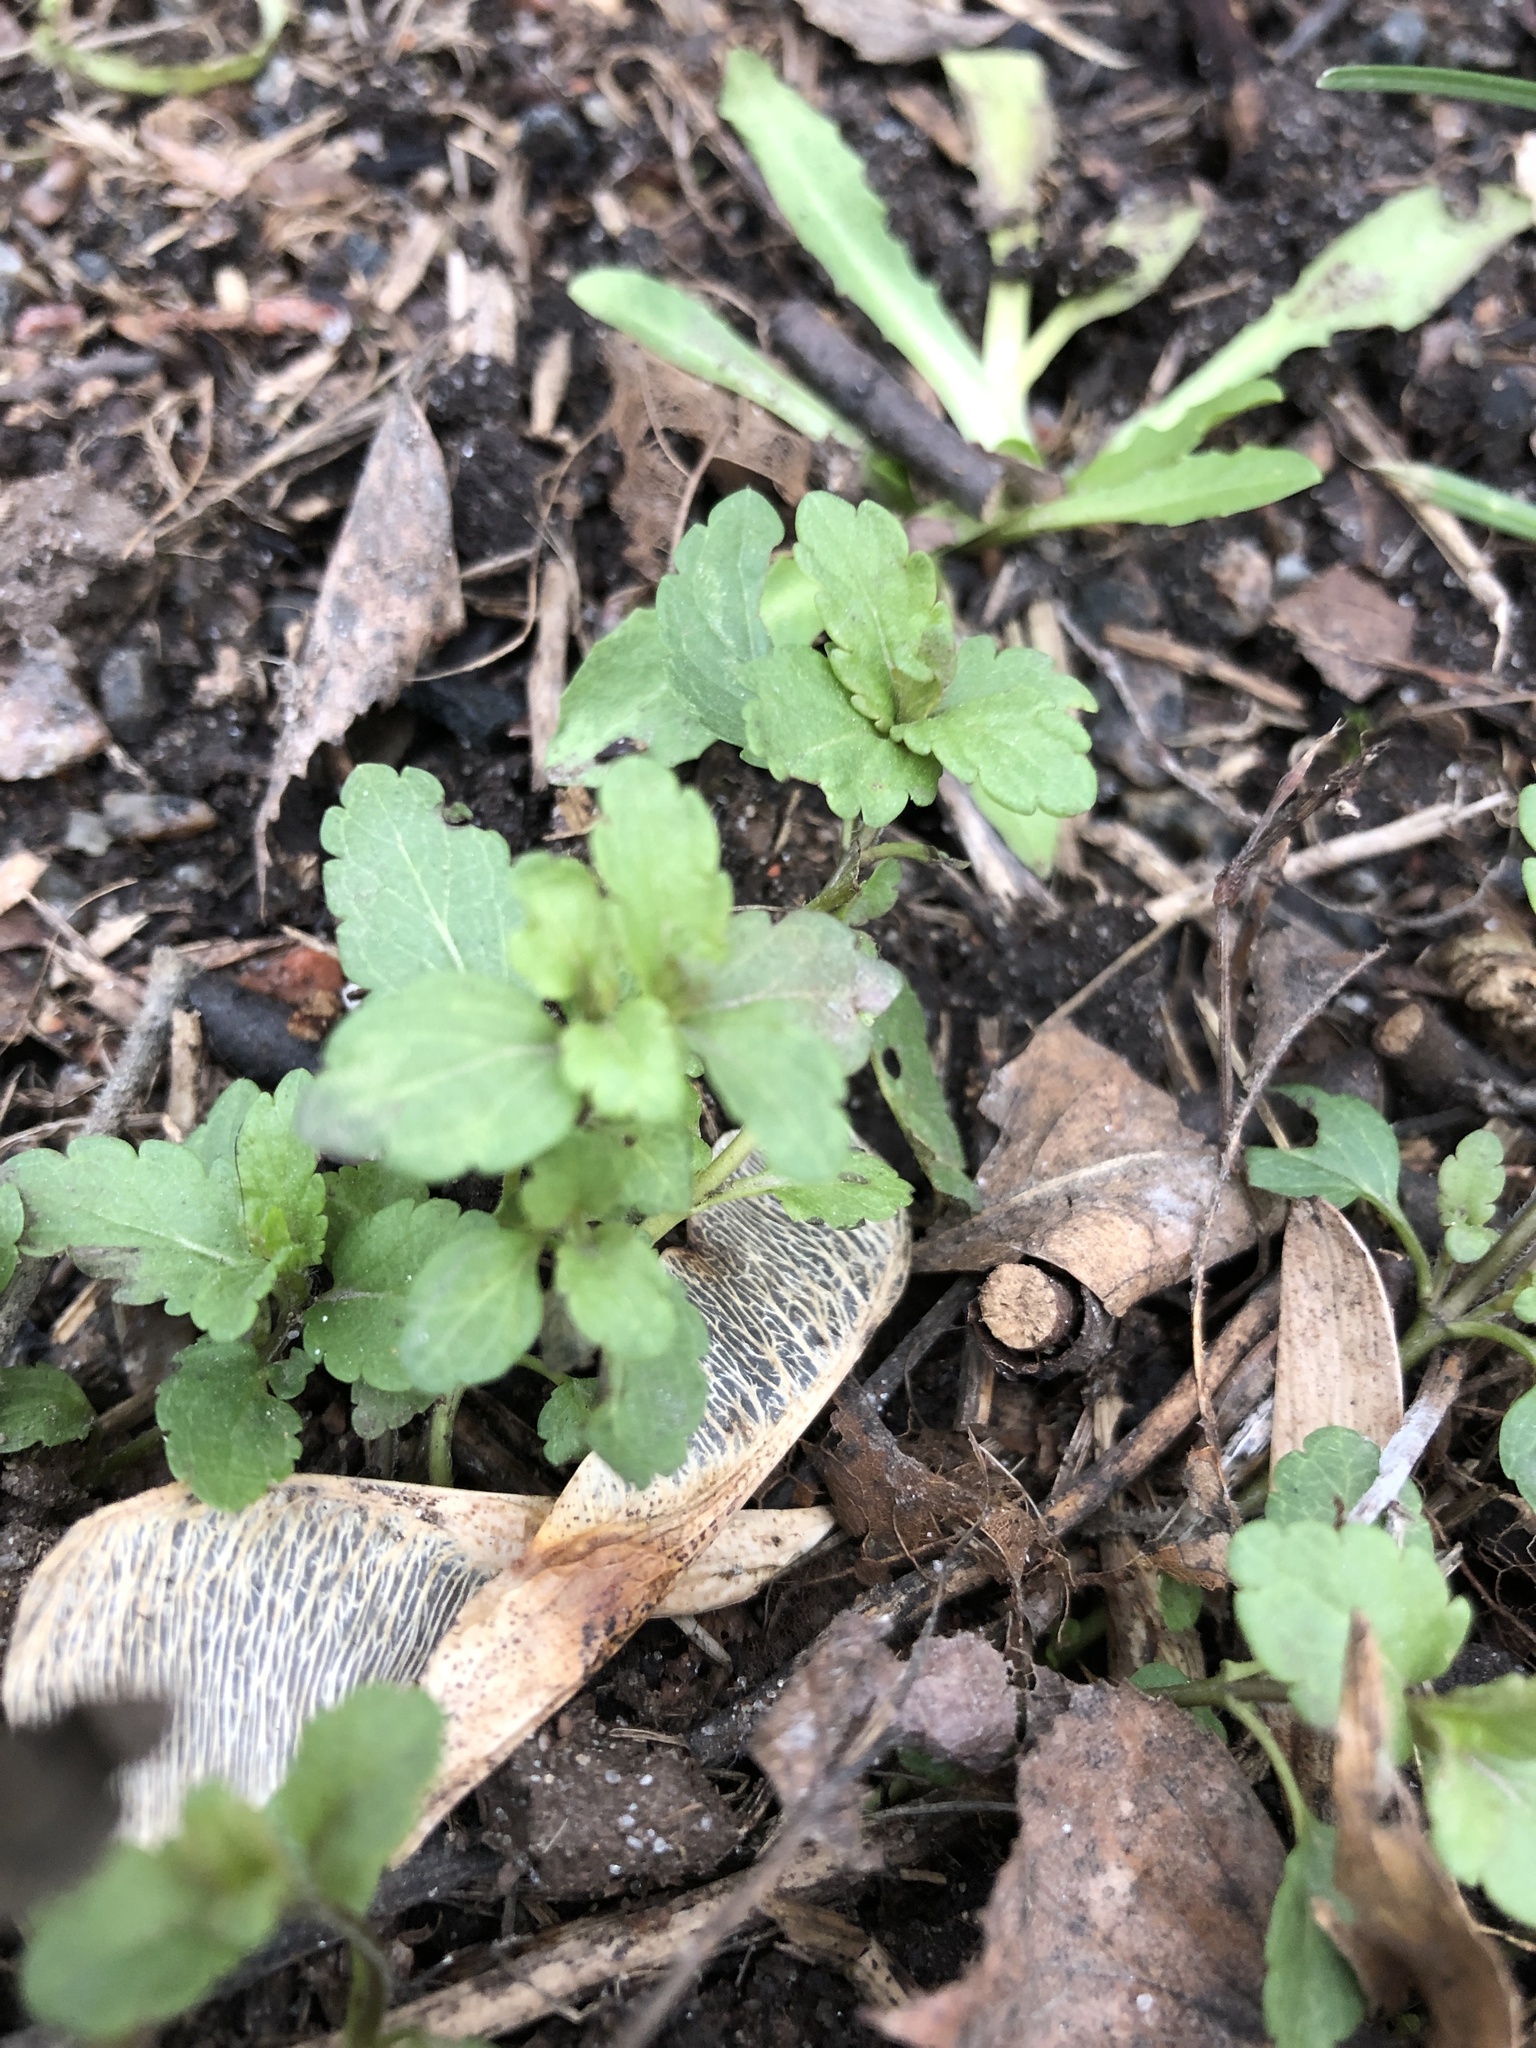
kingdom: Plantae
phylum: Tracheophyta
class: Magnoliopsida
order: Lamiales
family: Plantaginaceae
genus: Veronica
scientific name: Veronica persica
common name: Common field-speedwell
